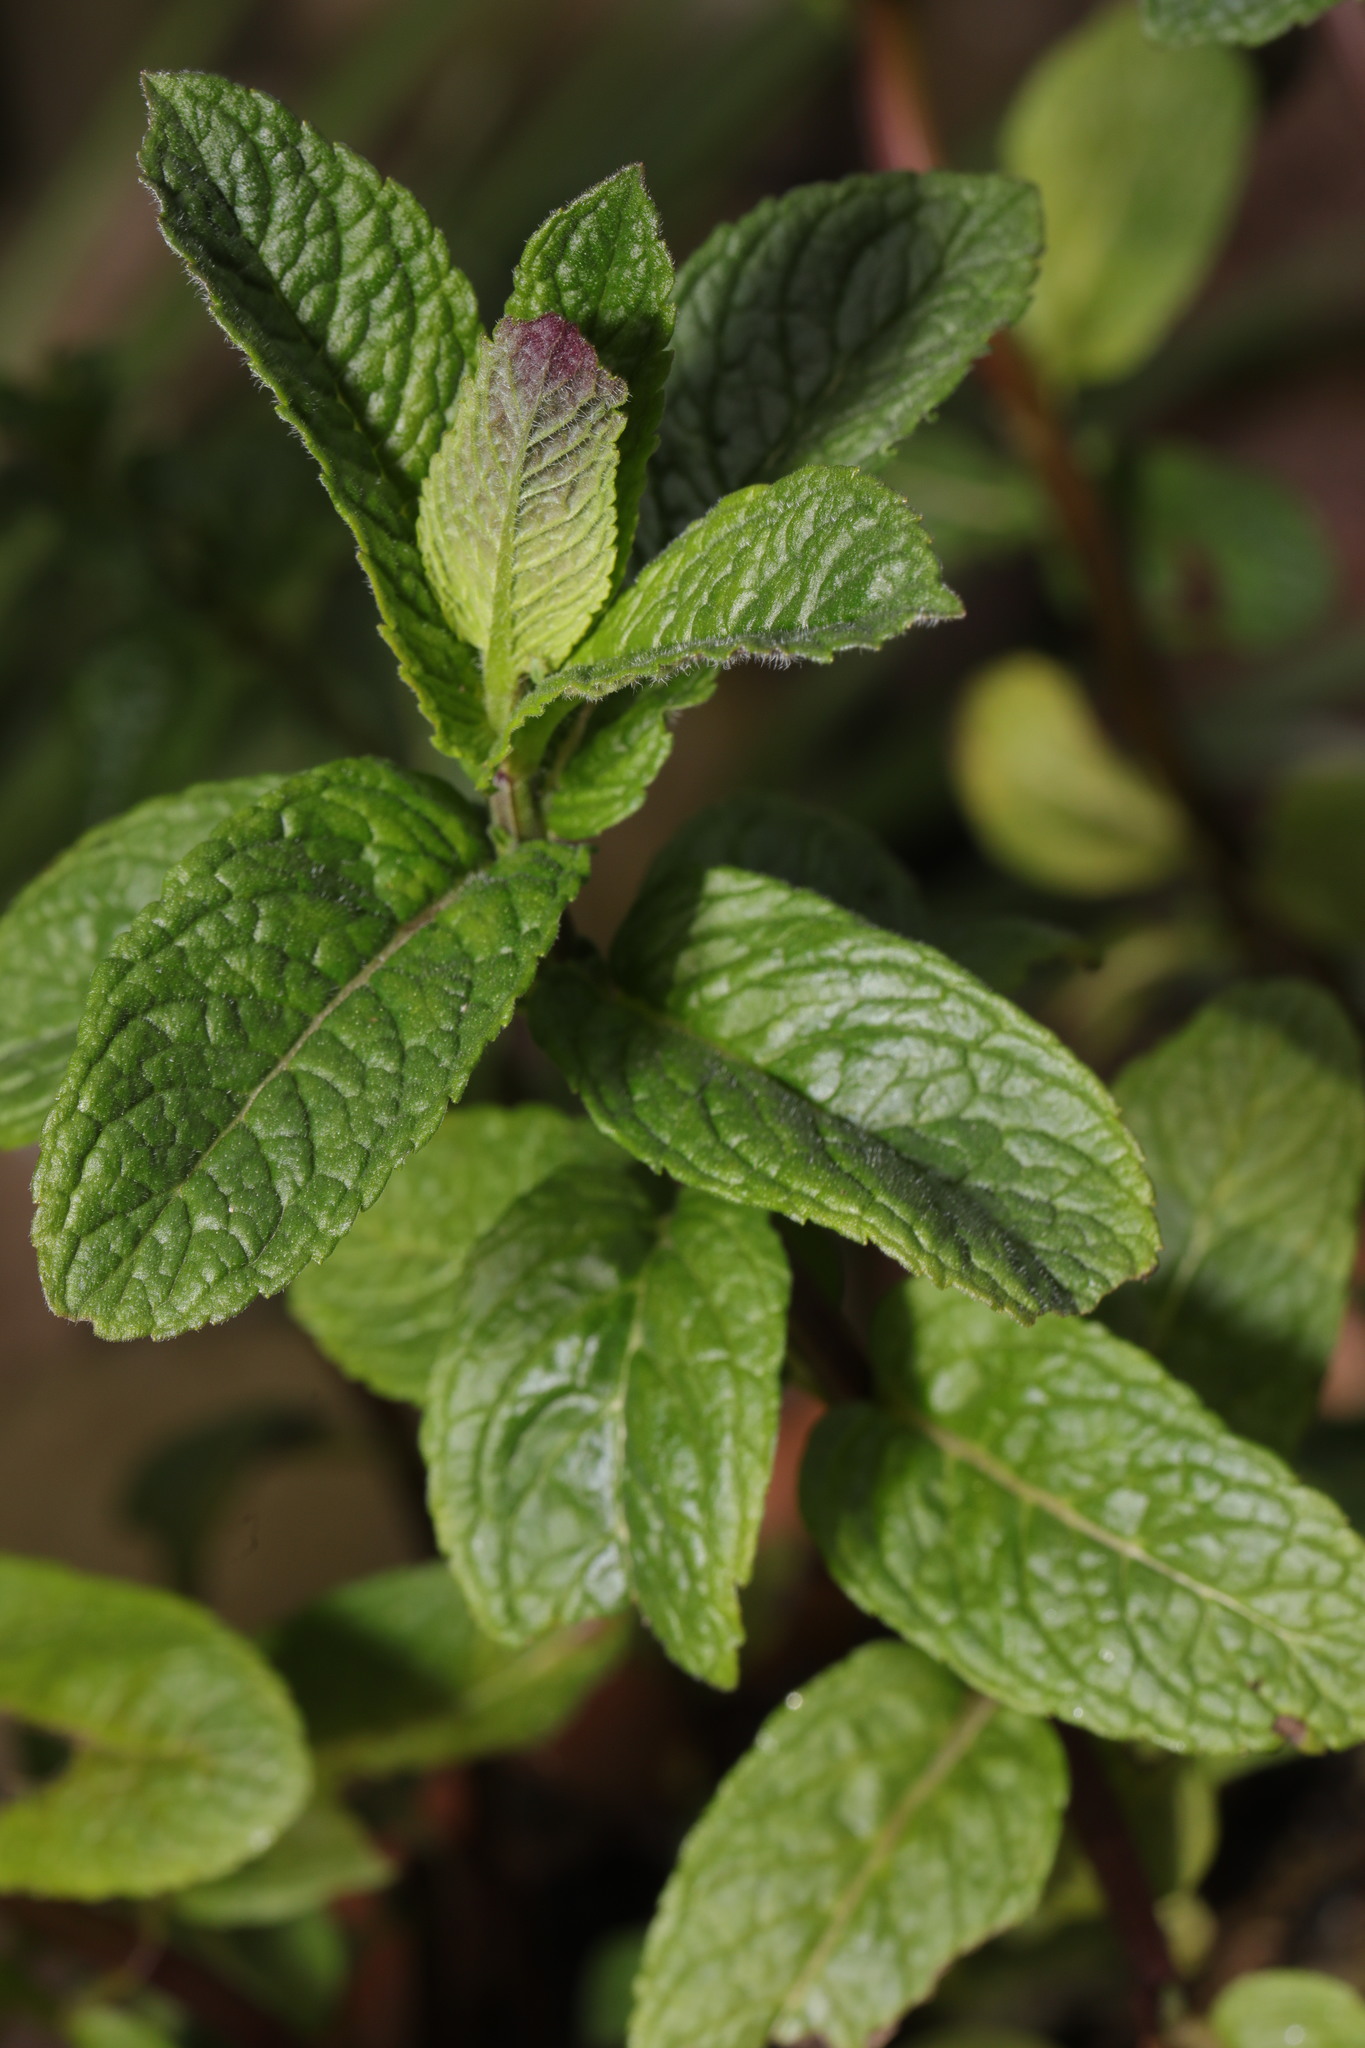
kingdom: Plantae
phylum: Tracheophyta
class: Magnoliopsida
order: Lamiales
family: Lamiaceae
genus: Mentha
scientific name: Mentha spicata
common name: Spearmint
